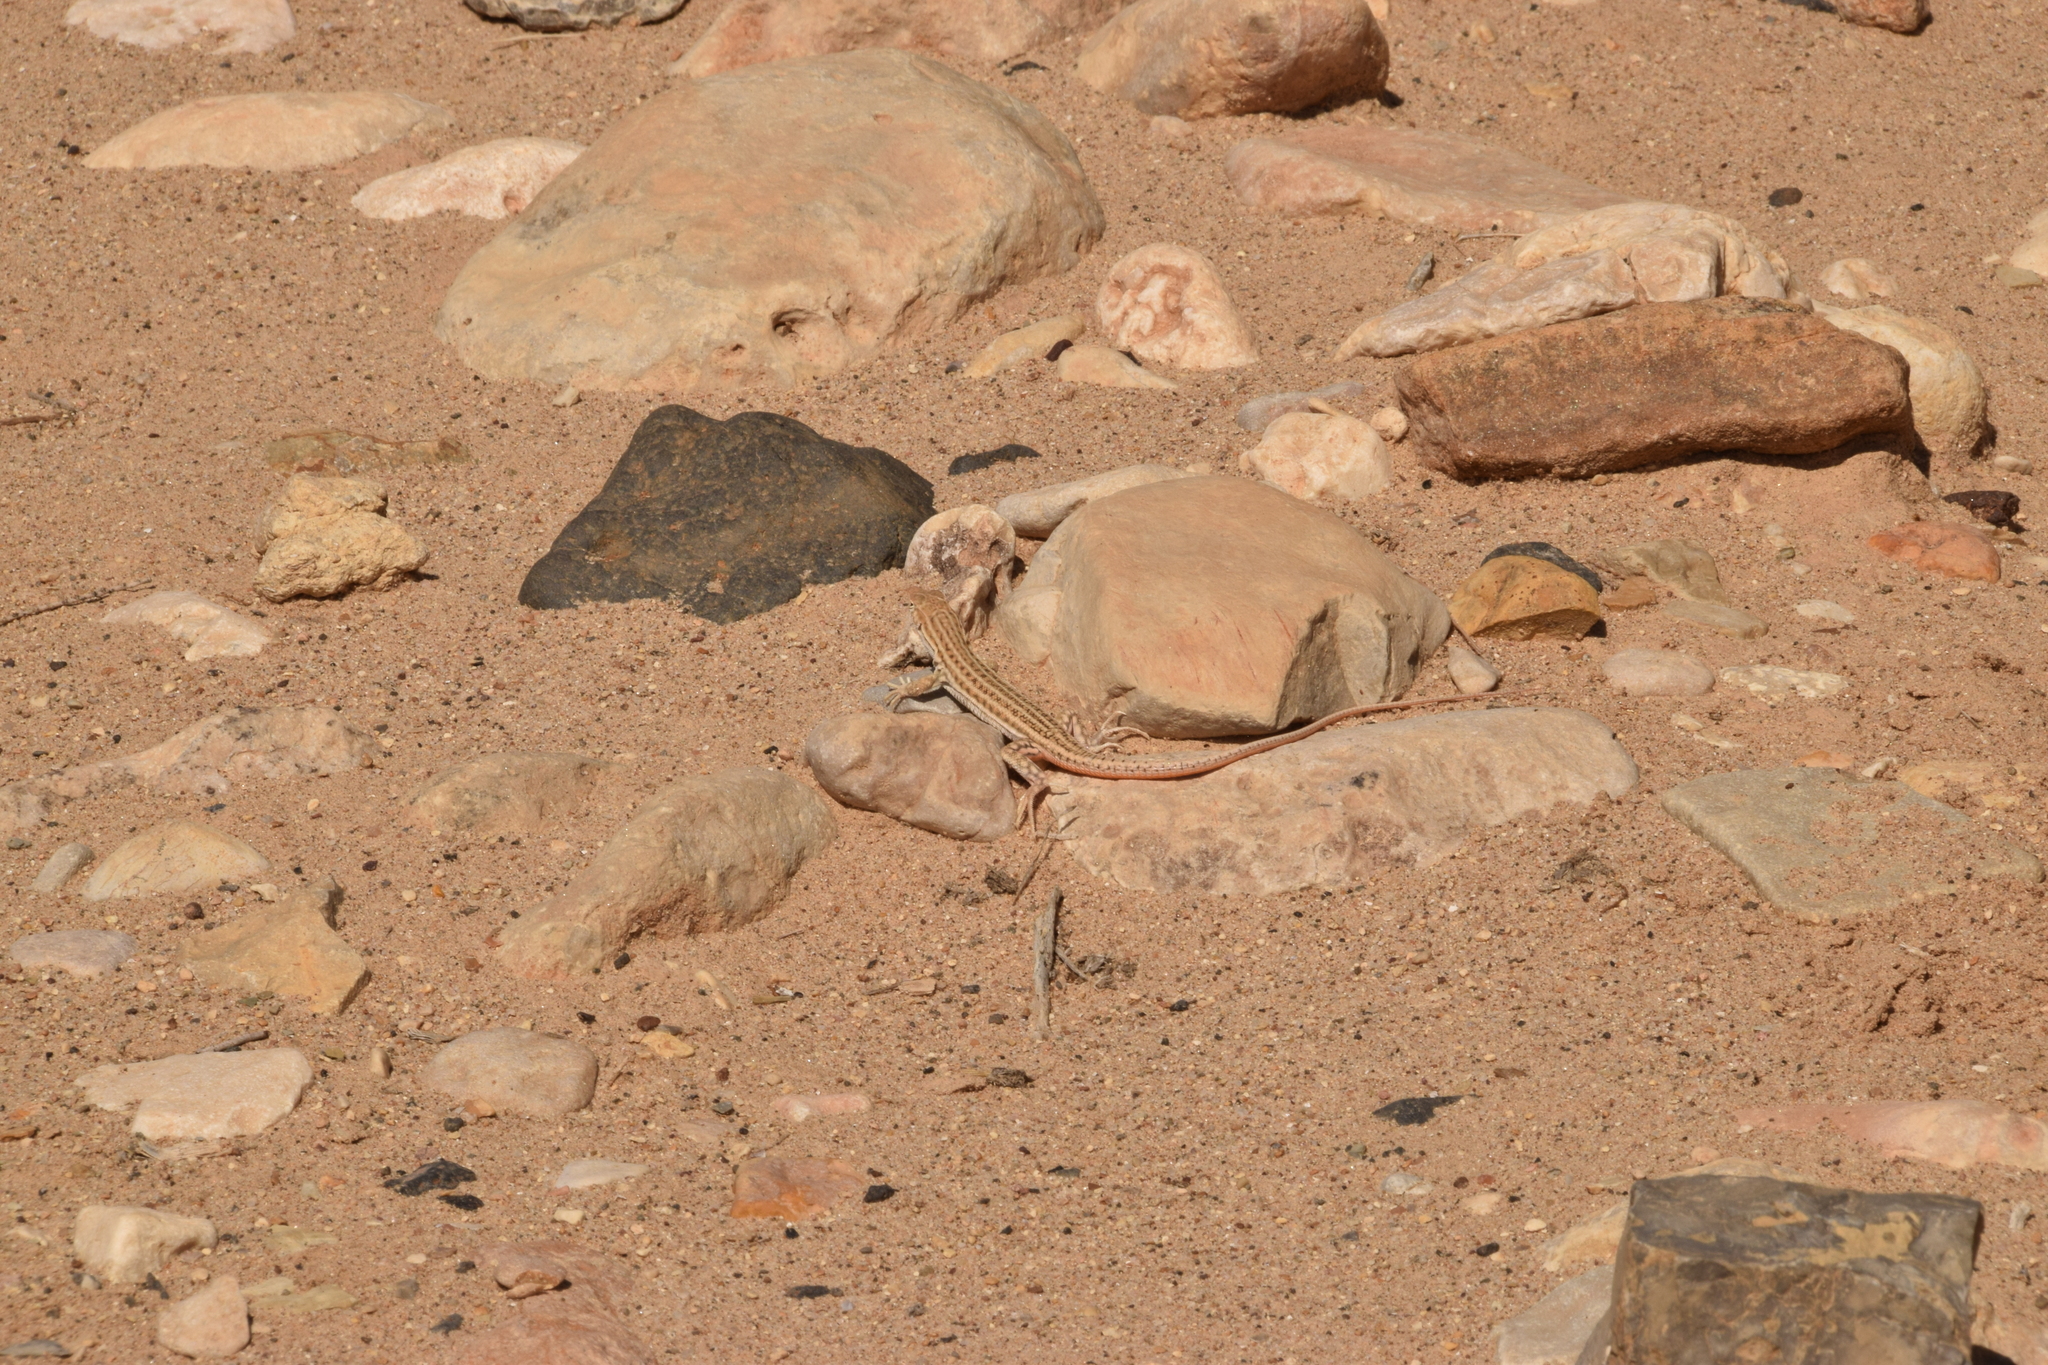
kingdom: Animalia
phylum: Chordata
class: Squamata
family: Lacertidae
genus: Acanthodactylus
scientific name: Acanthodactylus boskianus
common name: Bosc’s fringe-toed lizard
